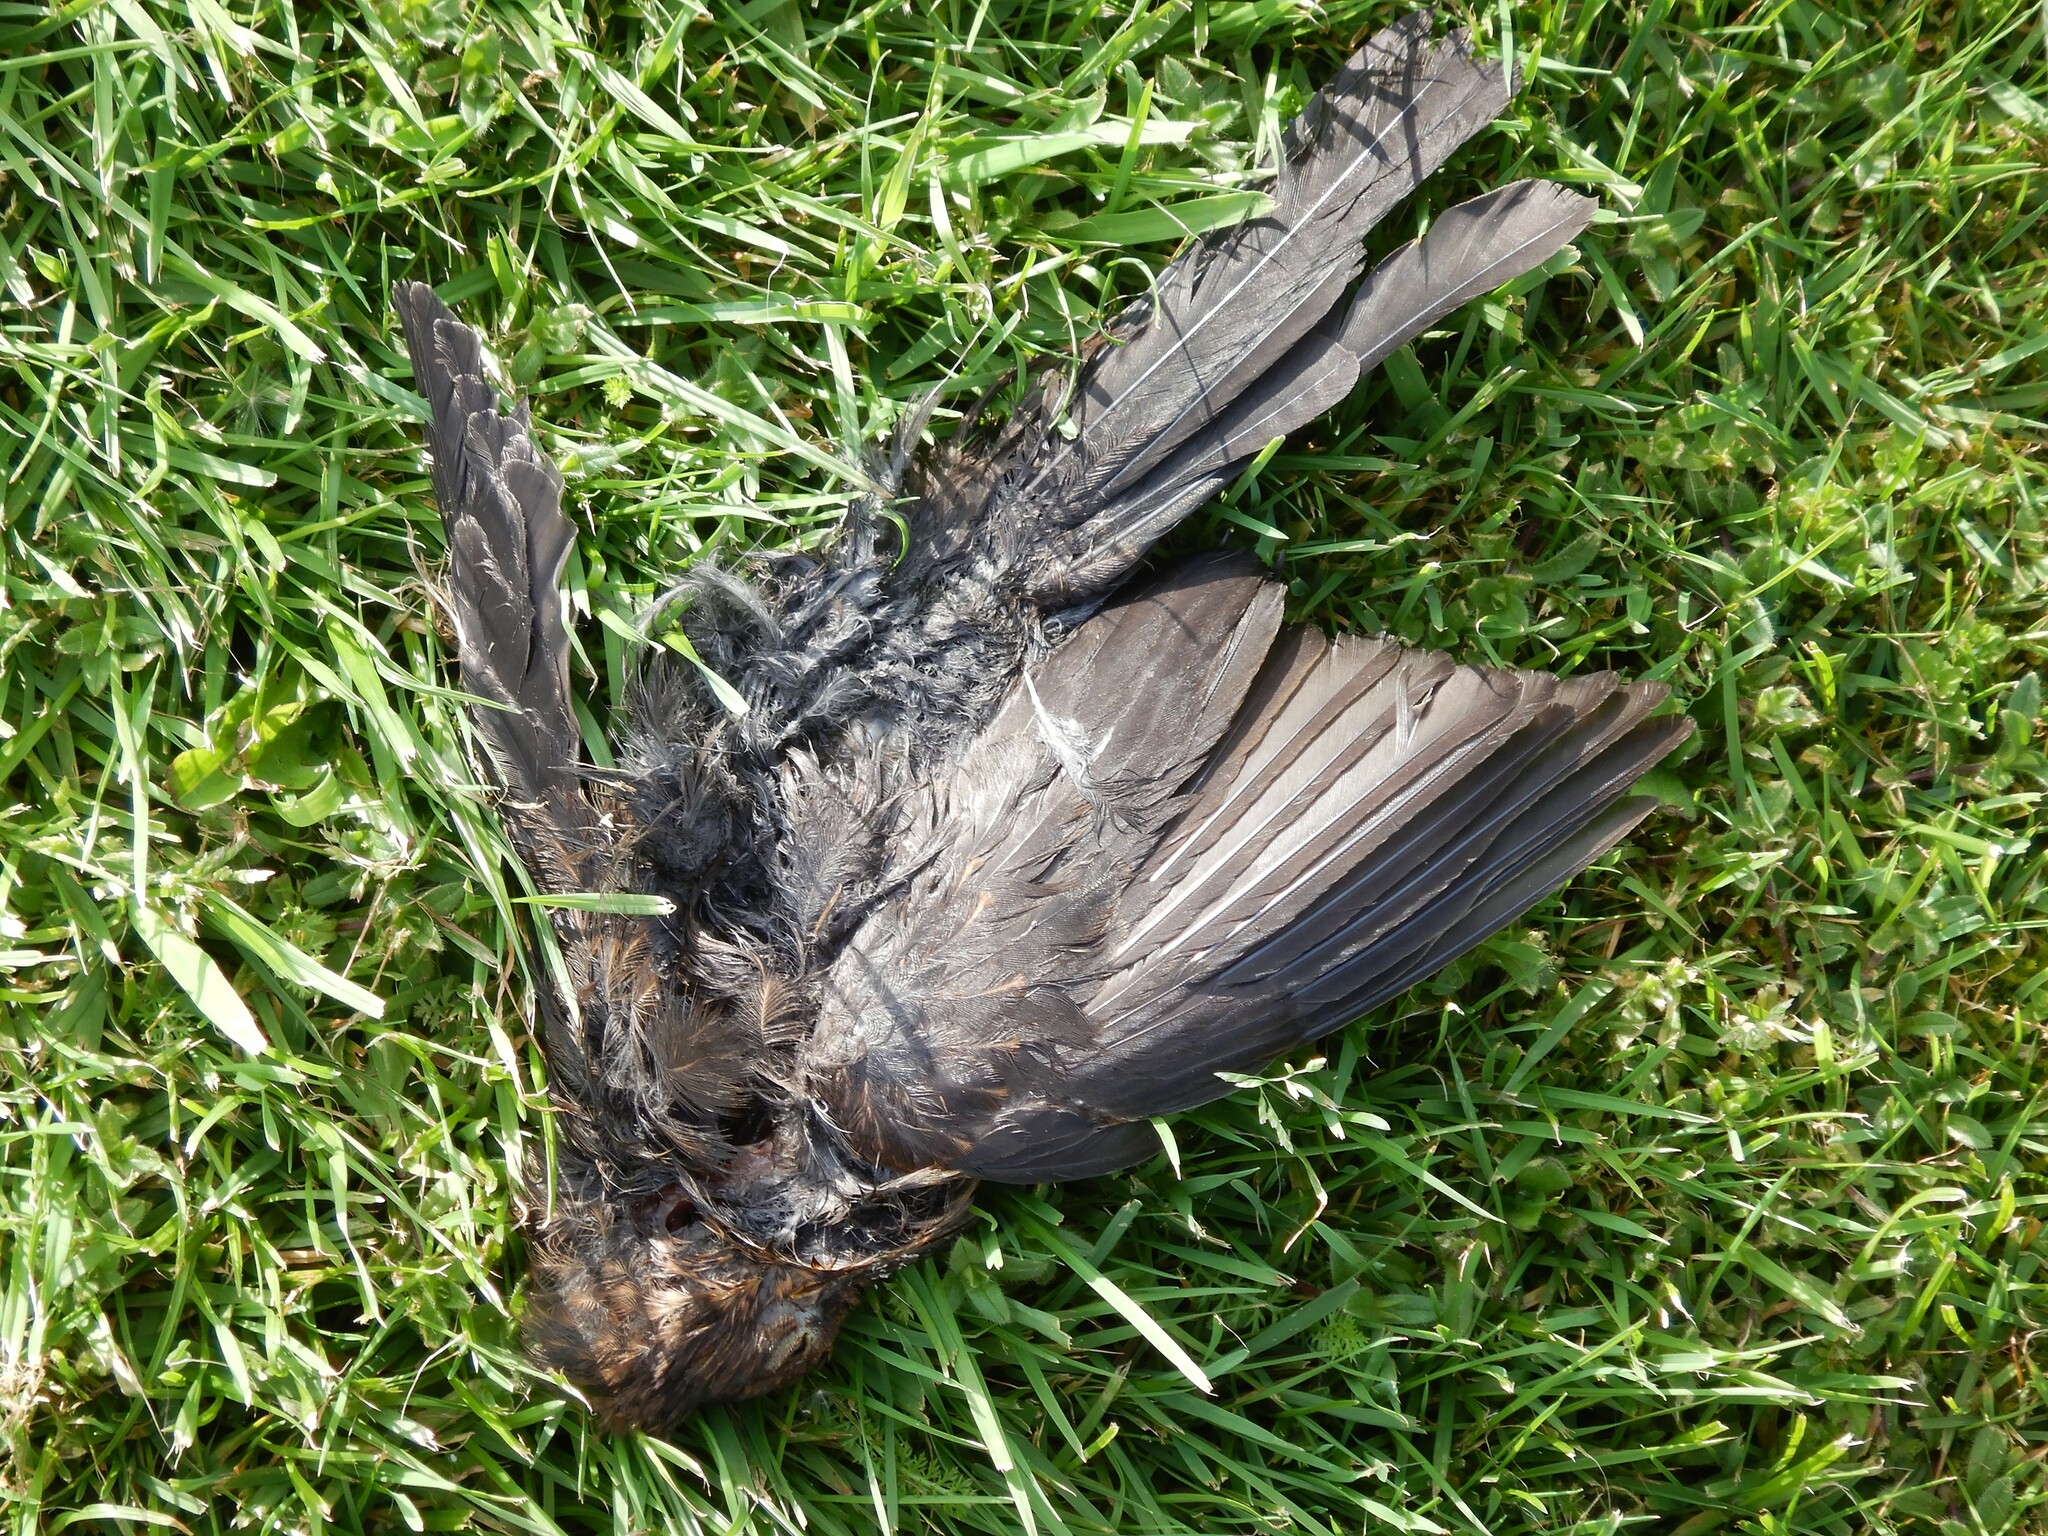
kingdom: Animalia
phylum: Chordata
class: Aves
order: Passeriformes
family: Turdidae
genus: Turdus
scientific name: Turdus merula
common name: Common blackbird
